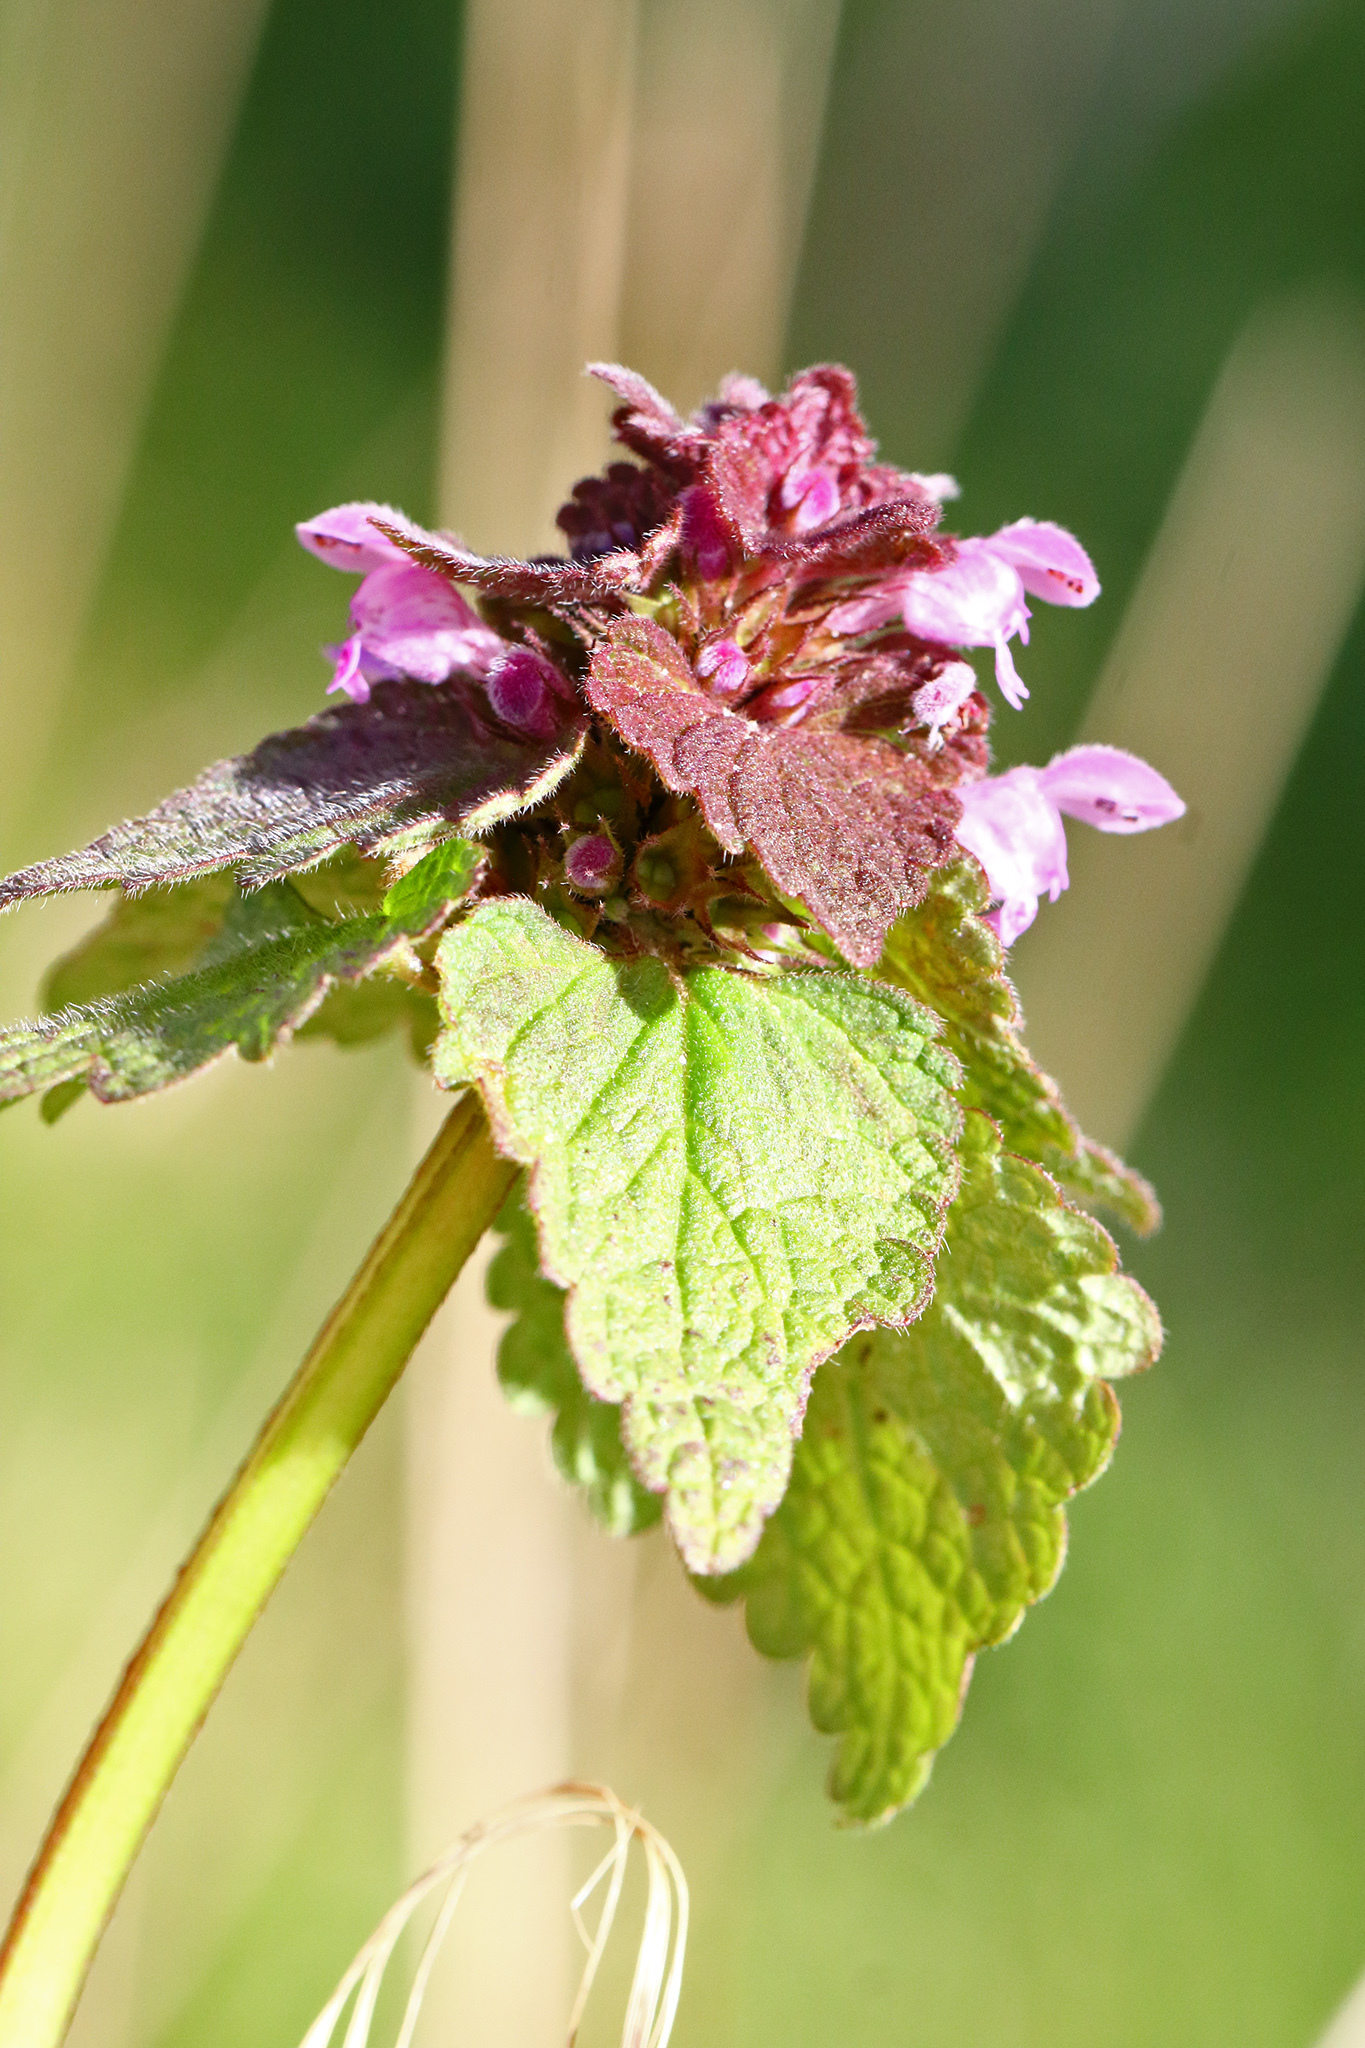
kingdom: Plantae
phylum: Tracheophyta
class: Magnoliopsida
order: Lamiales
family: Lamiaceae
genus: Lamium
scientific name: Lamium purpureum
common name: Red dead-nettle
